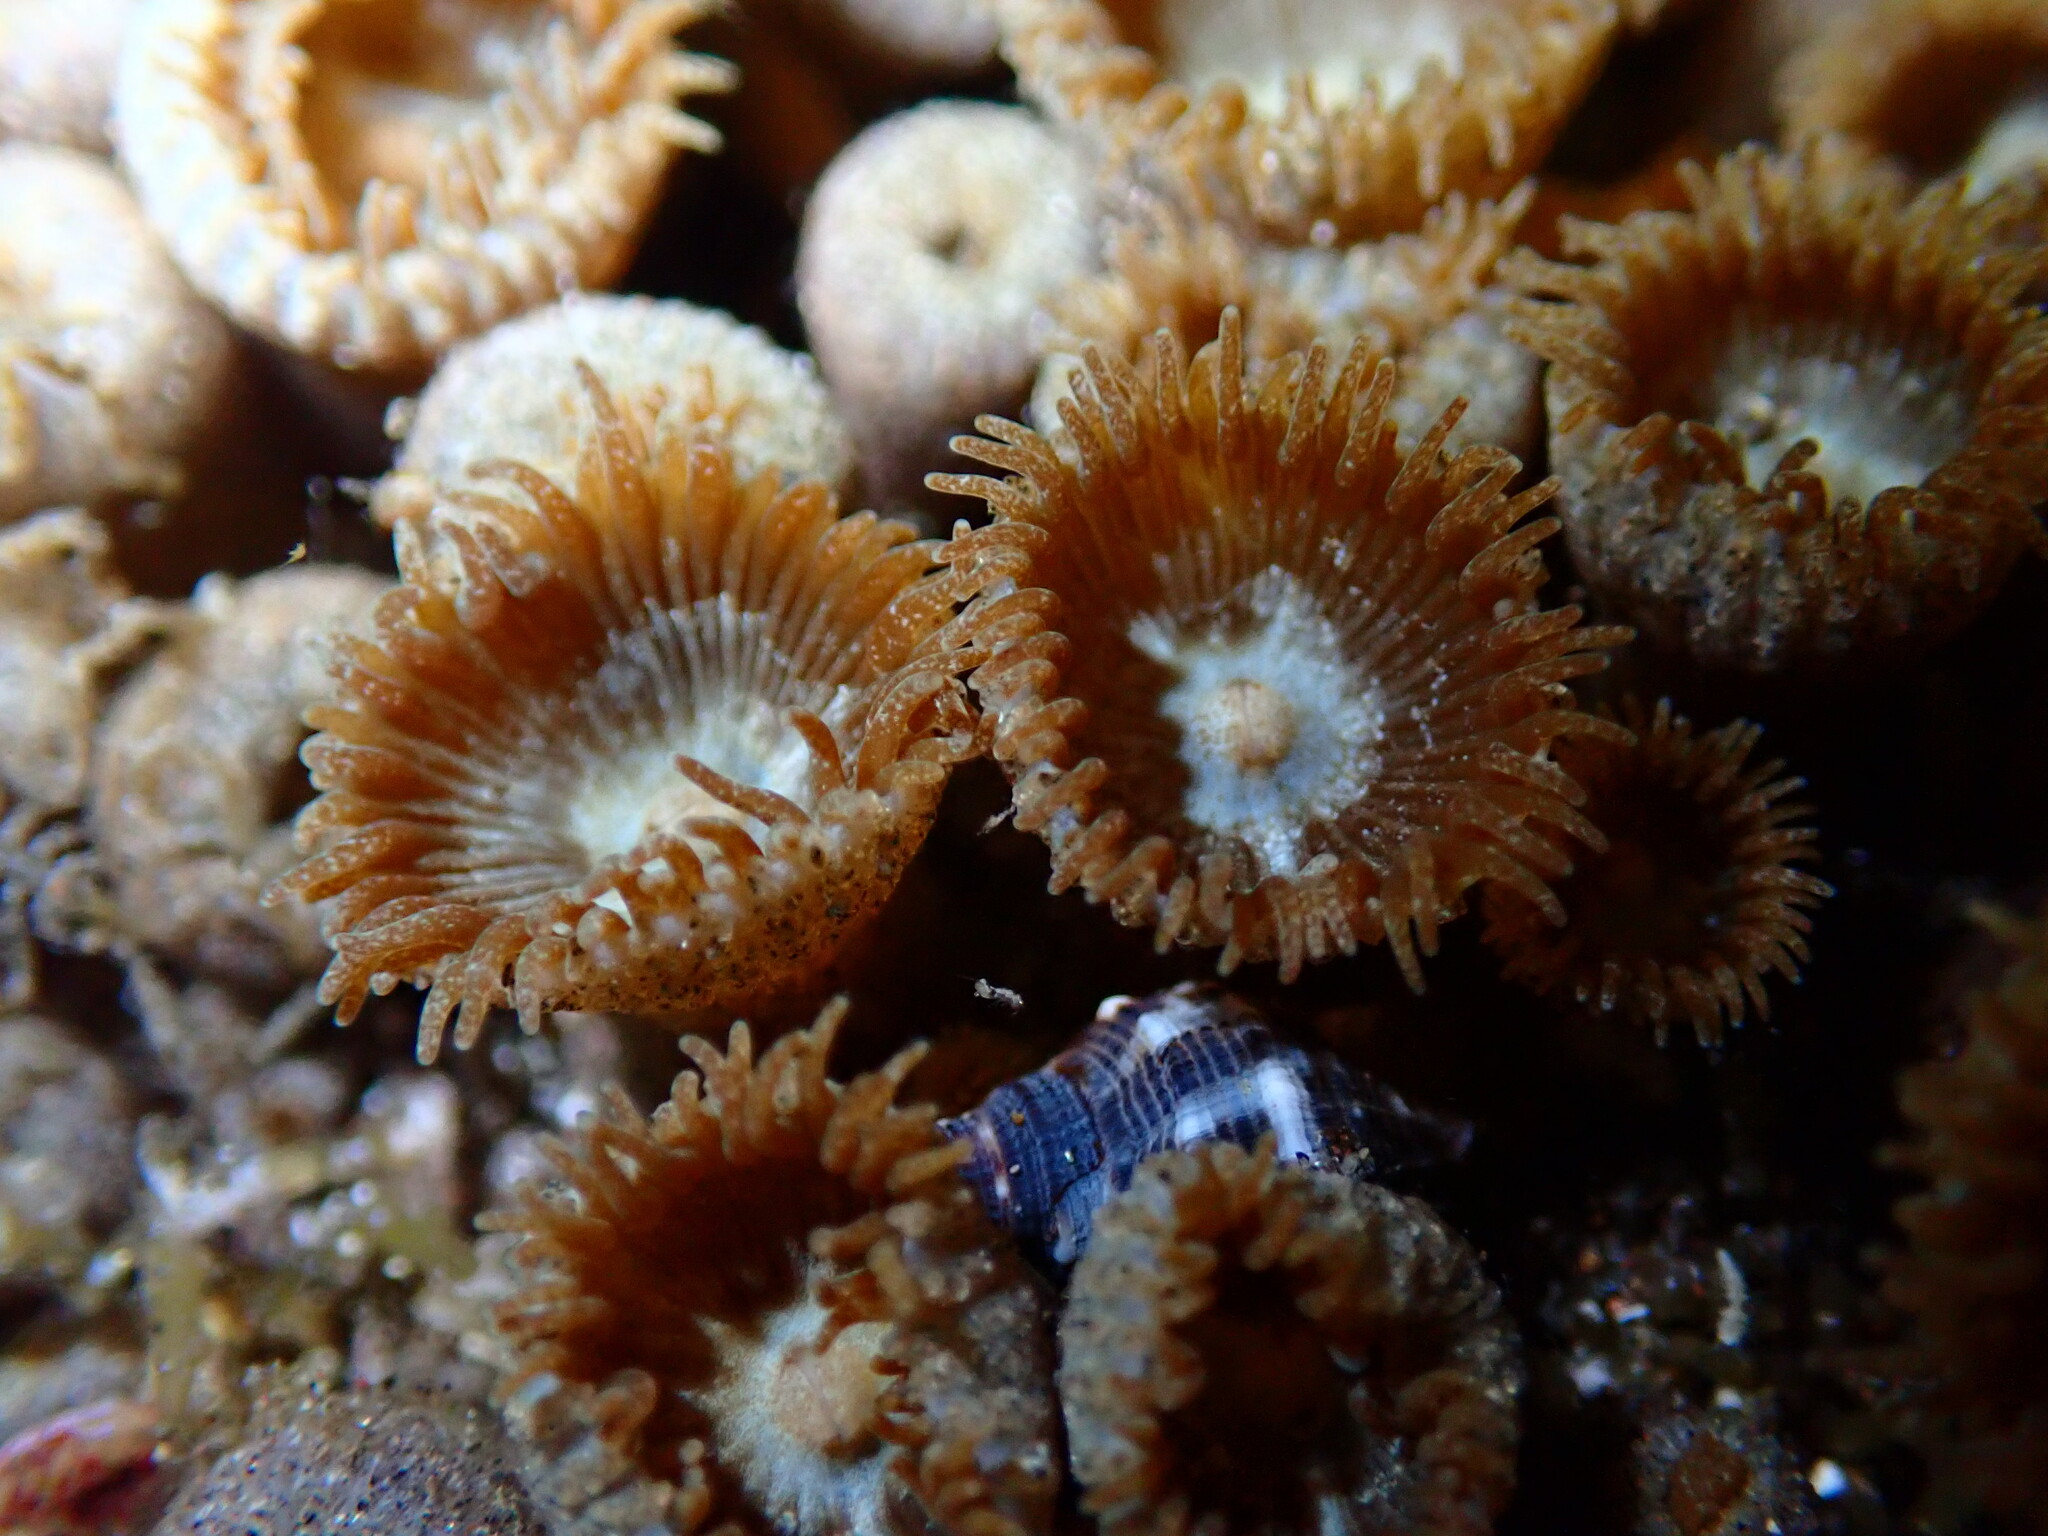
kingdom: Animalia
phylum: Cnidaria
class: Anthozoa
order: Zoantharia
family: Sphenopidae
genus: Palythoa
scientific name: Palythoa grandiflora
